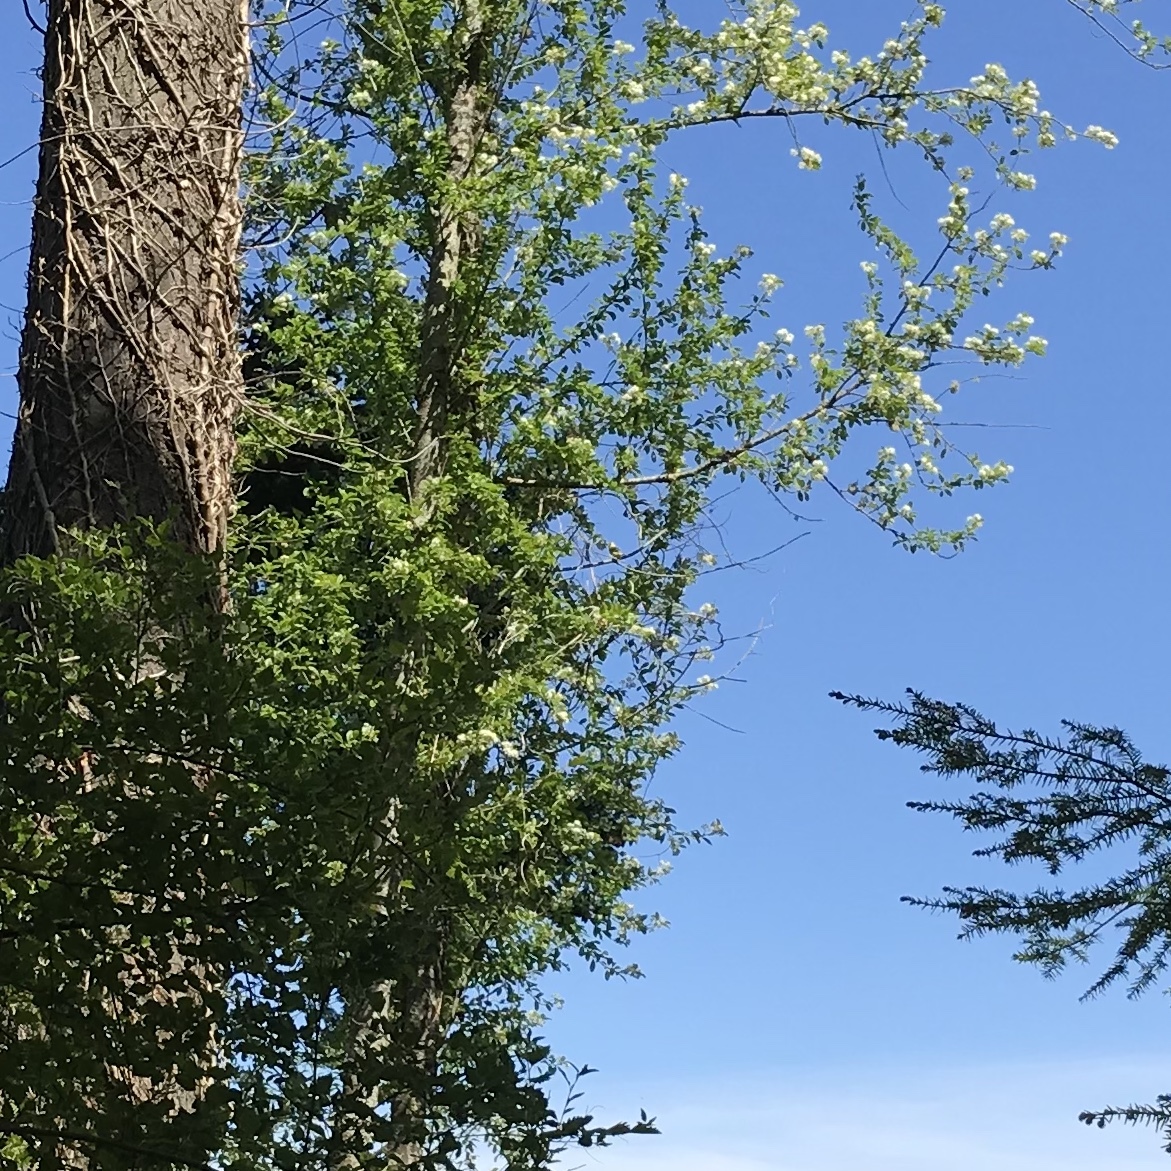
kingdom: Animalia
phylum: Chordata
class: Aves
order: Passeriformes
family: Fringillidae
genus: Spinus
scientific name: Spinus tristis
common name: American goldfinch
